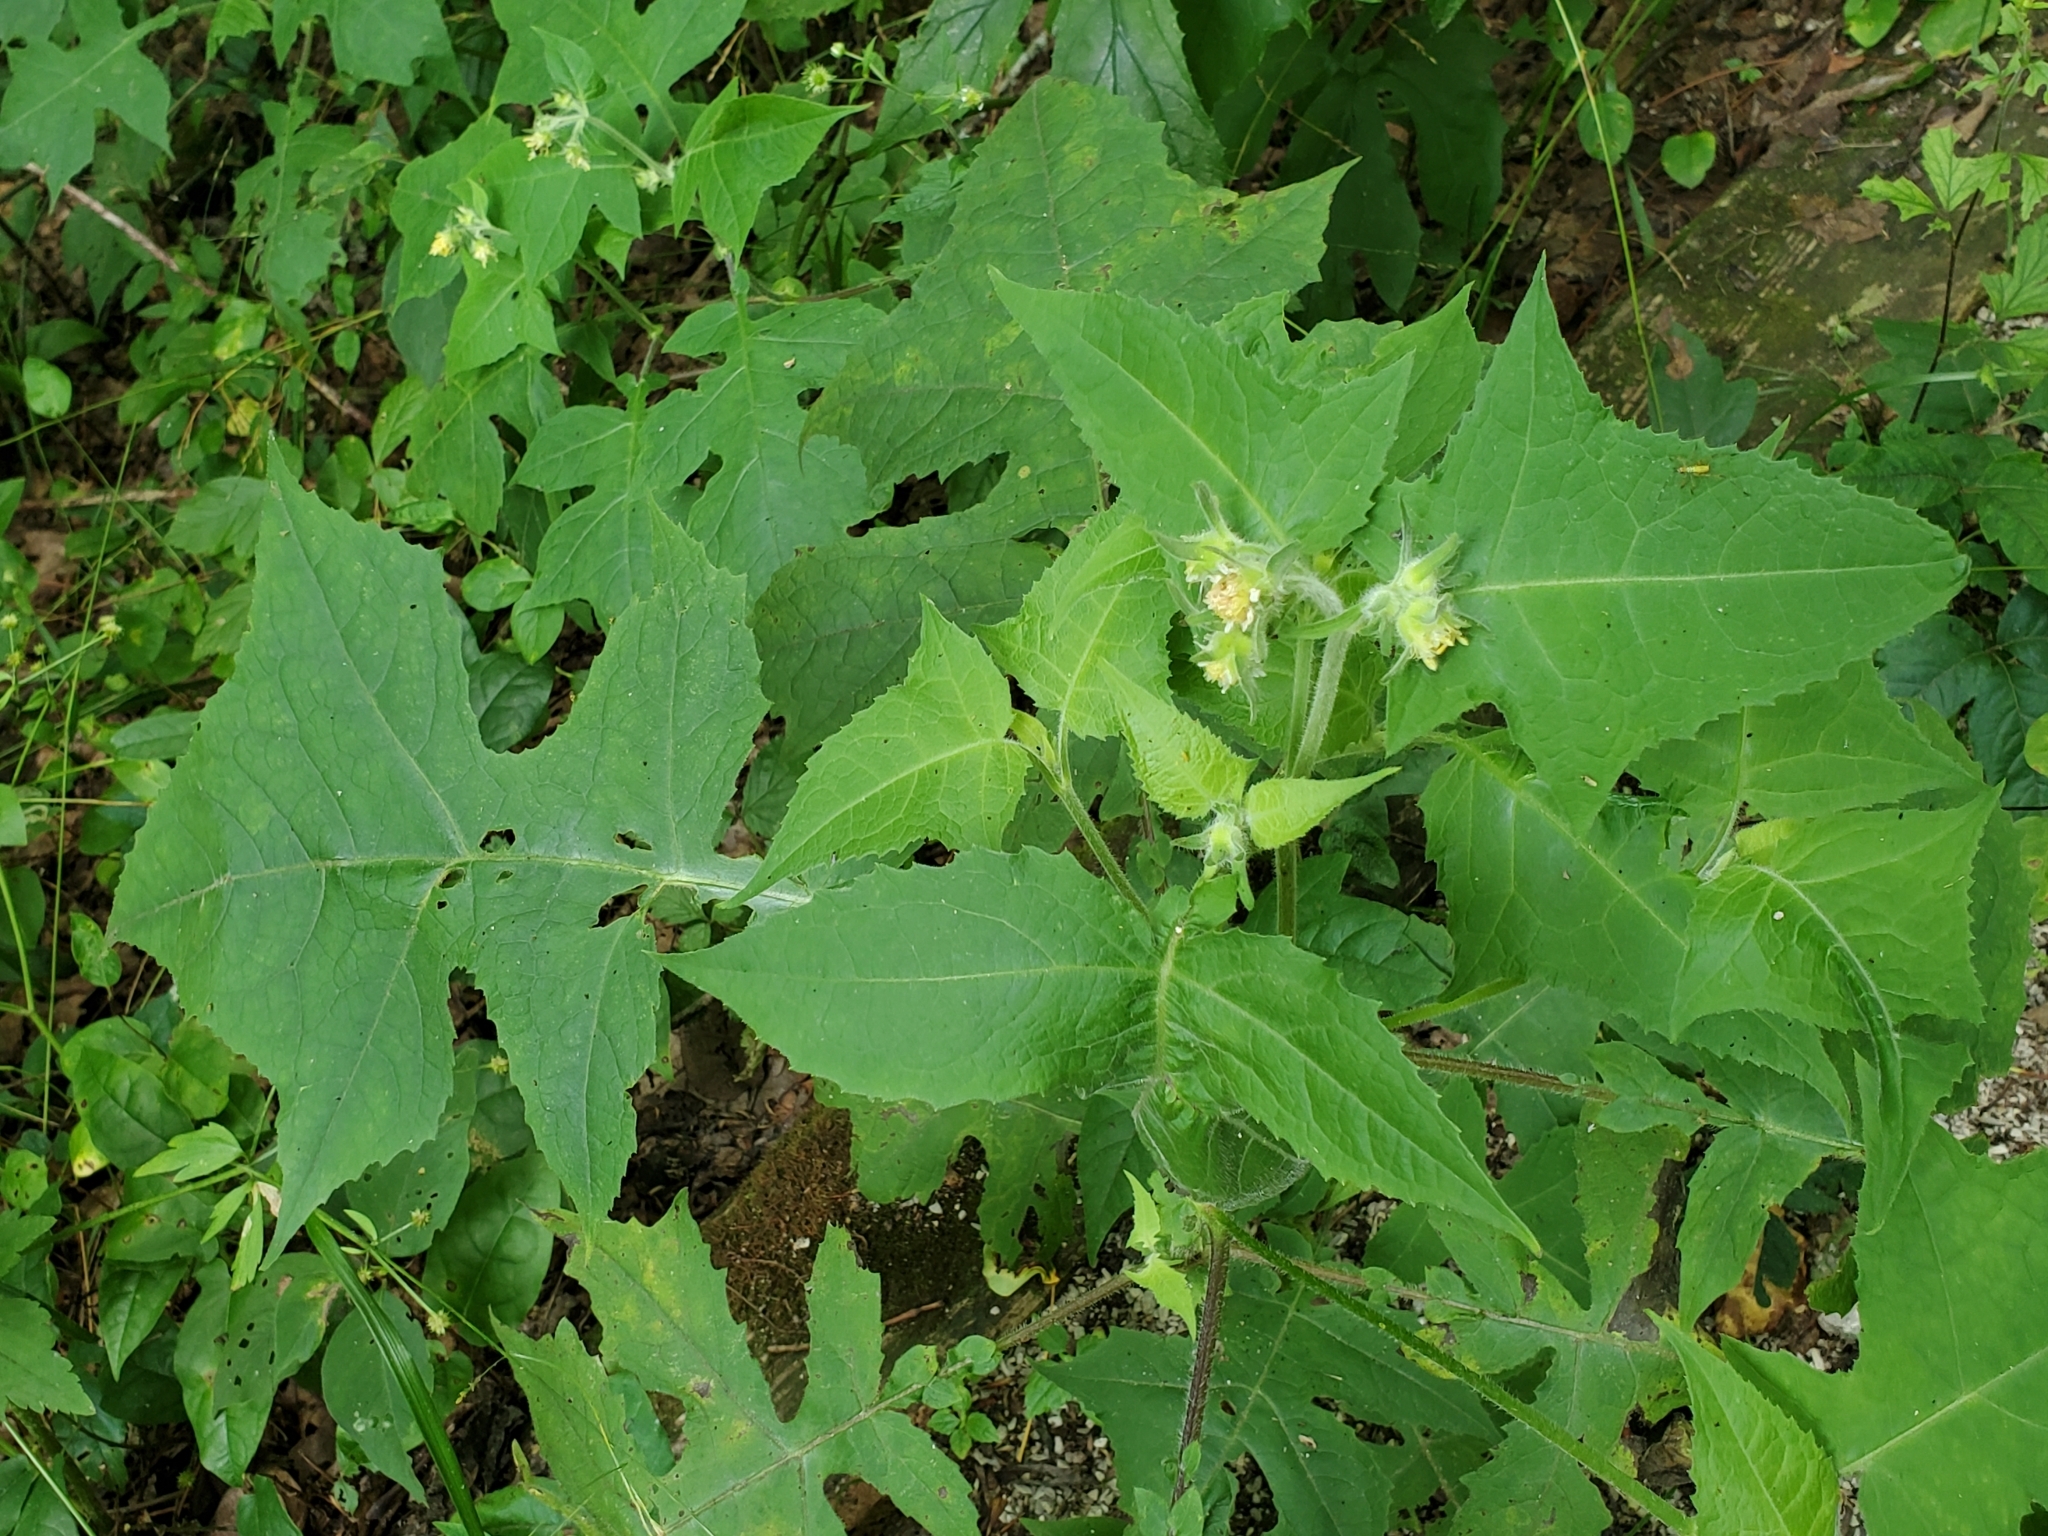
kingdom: Plantae
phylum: Tracheophyta
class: Magnoliopsida
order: Asterales
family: Asteraceae
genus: Smallanthus
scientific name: Smallanthus uvedalia
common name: Bear's-foot
